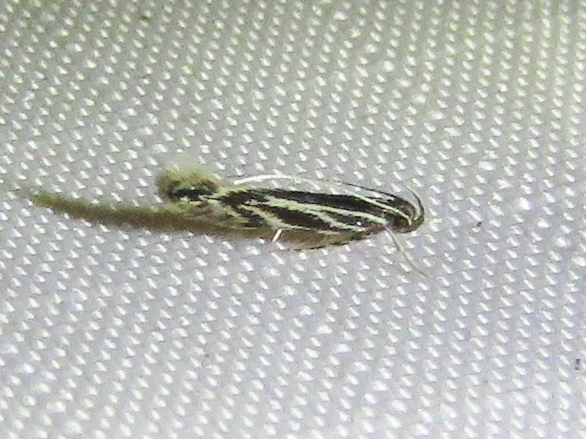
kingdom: Animalia
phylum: Arthropoda
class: Insecta
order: Lepidoptera
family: Cosmopterigidae
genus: Eralea
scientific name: Eralea albalineella
